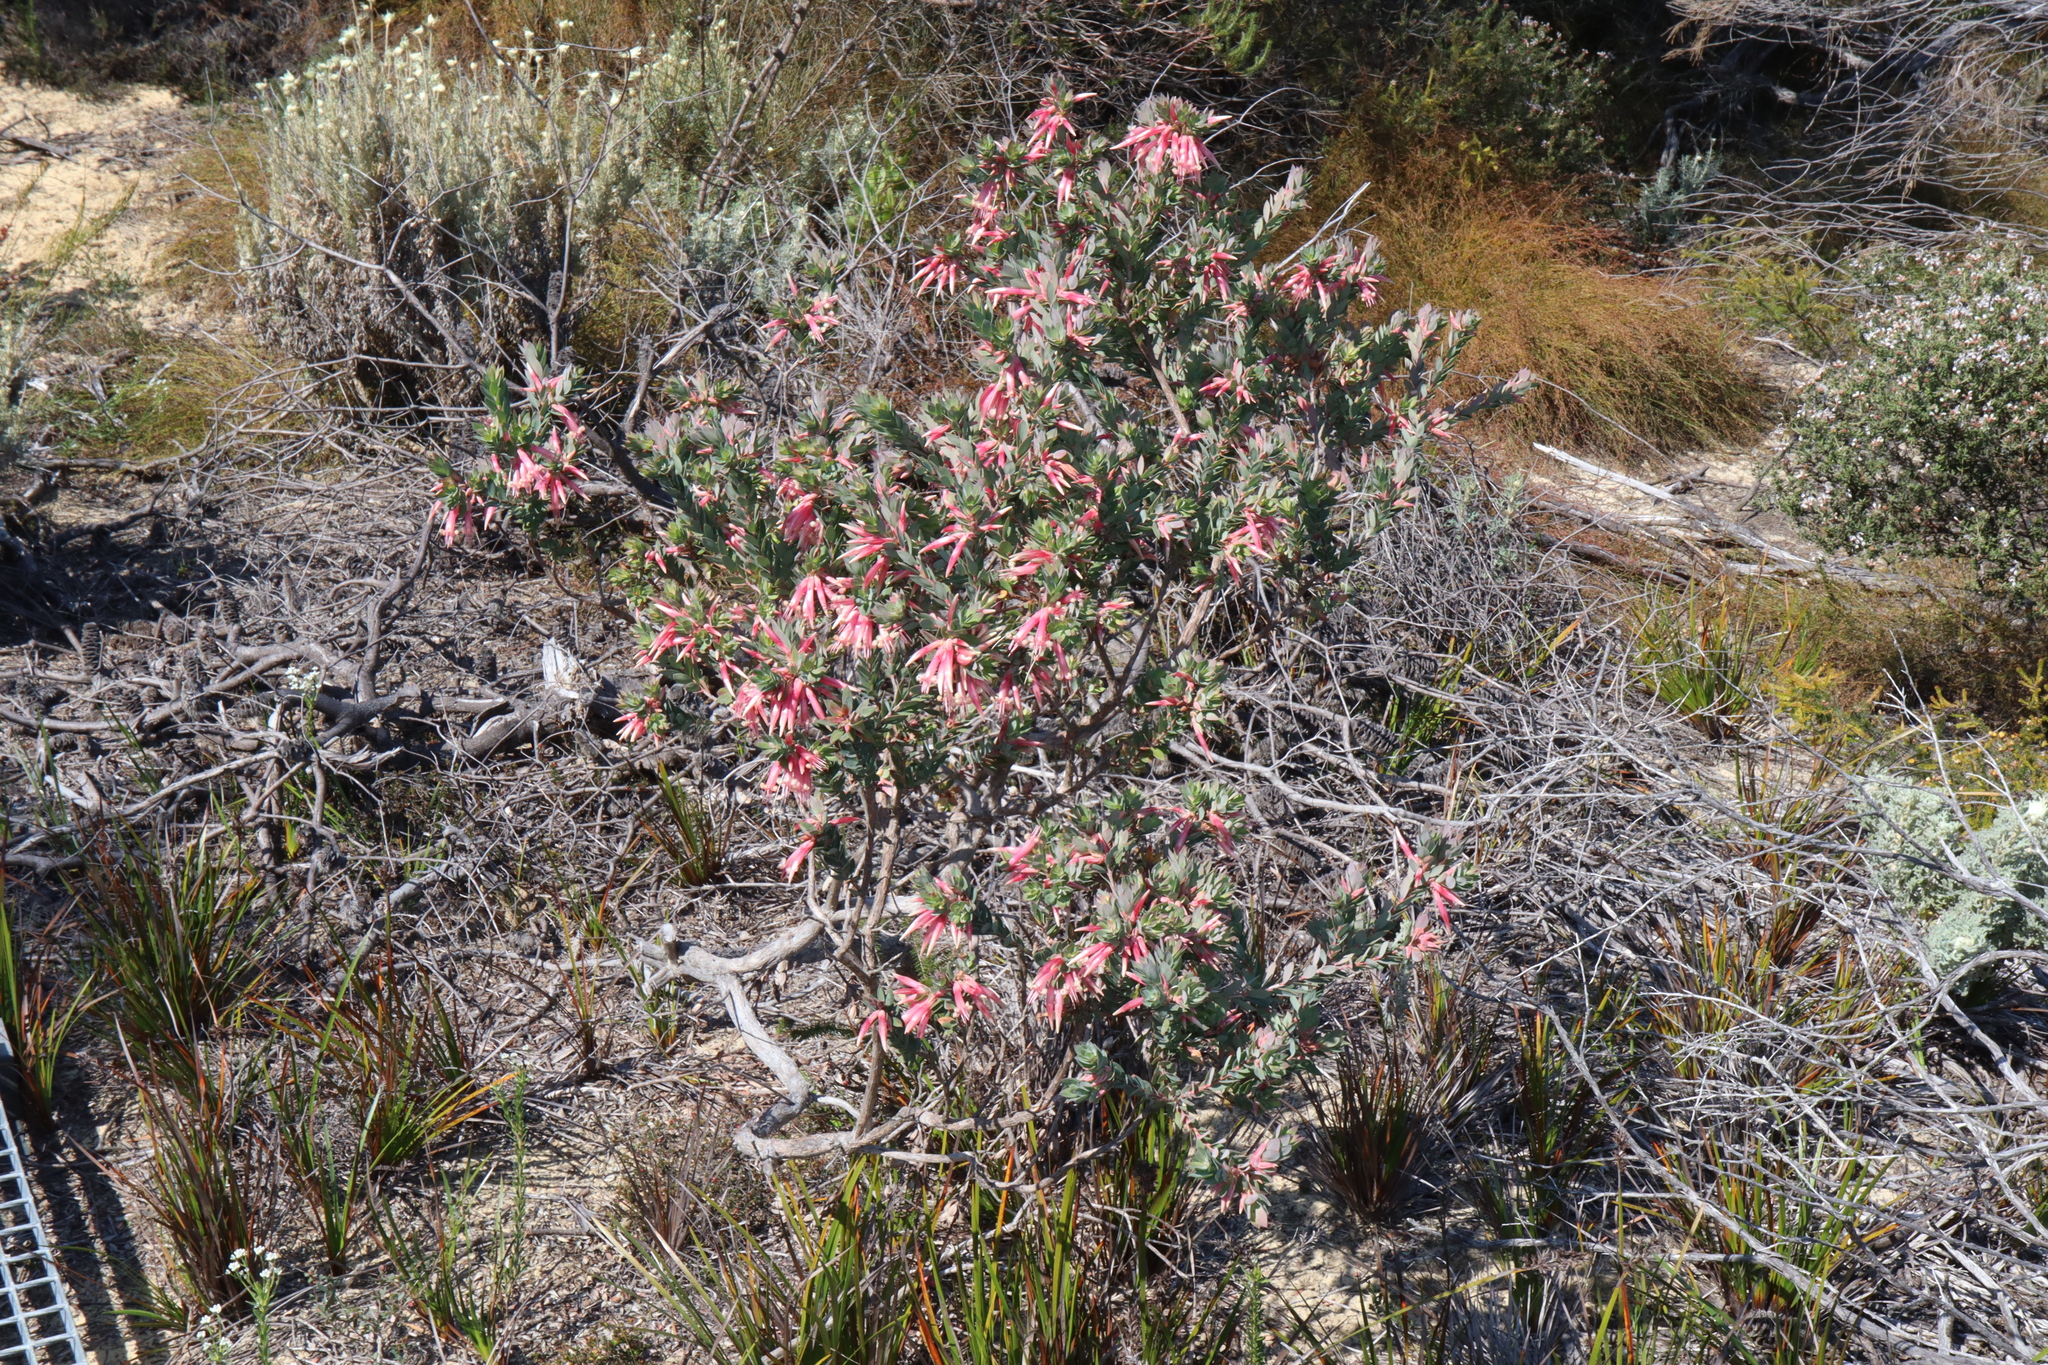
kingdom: Plantae
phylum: Tracheophyta
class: Magnoliopsida
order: Ericales
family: Ericaceae
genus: Styphelia
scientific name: Styphelia triflora
